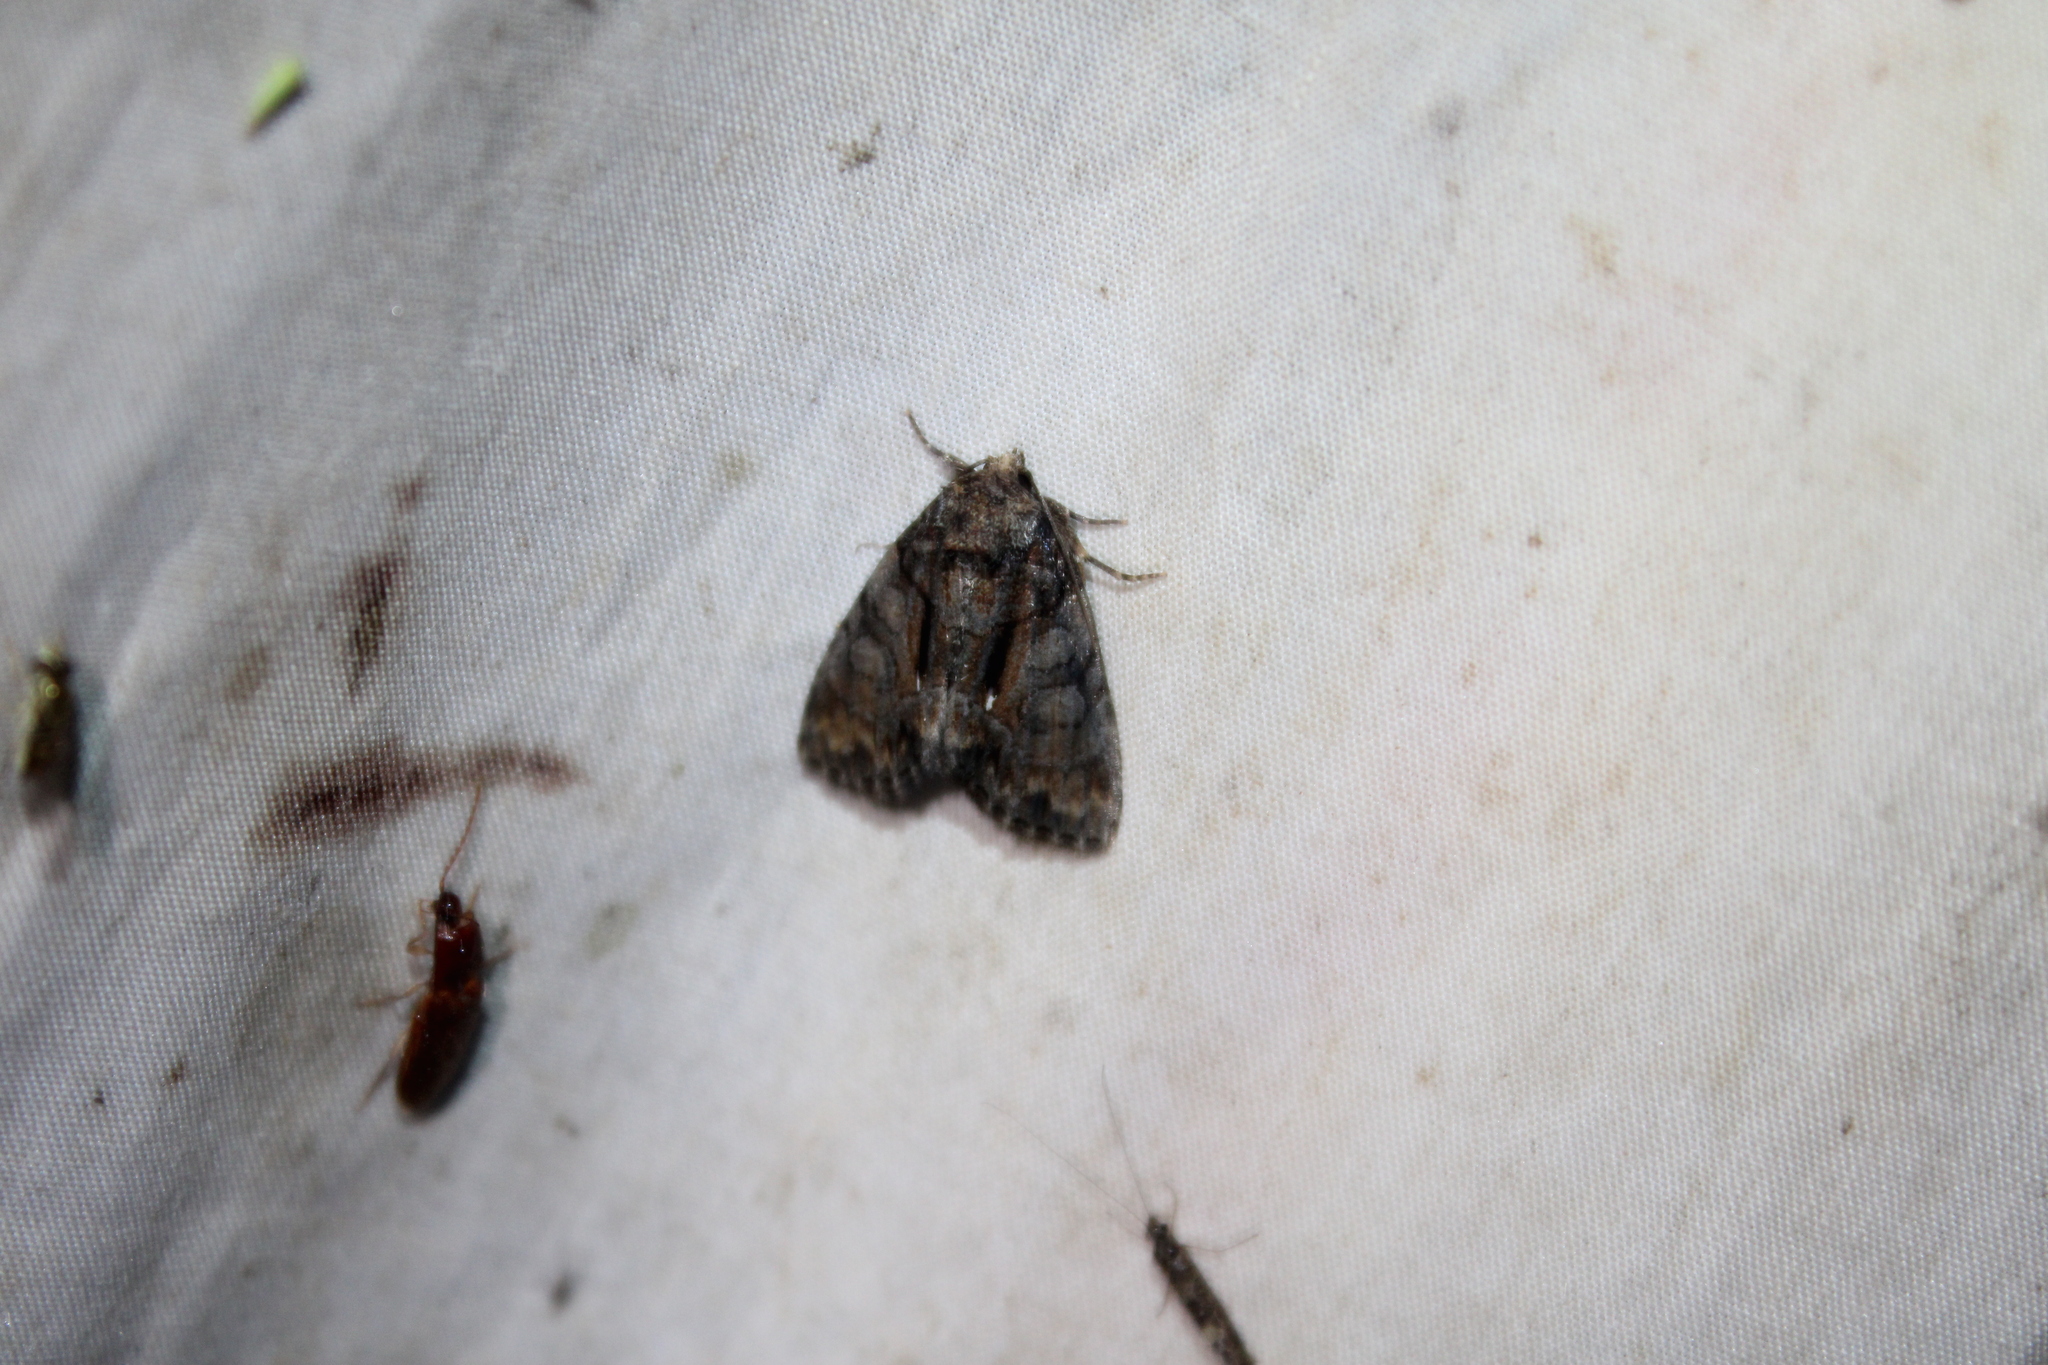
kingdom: Animalia
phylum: Arthropoda
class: Insecta
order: Lepidoptera
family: Noctuidae
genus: Chytonix
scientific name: Chytonix palliatricula
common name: Cloaked marvel
